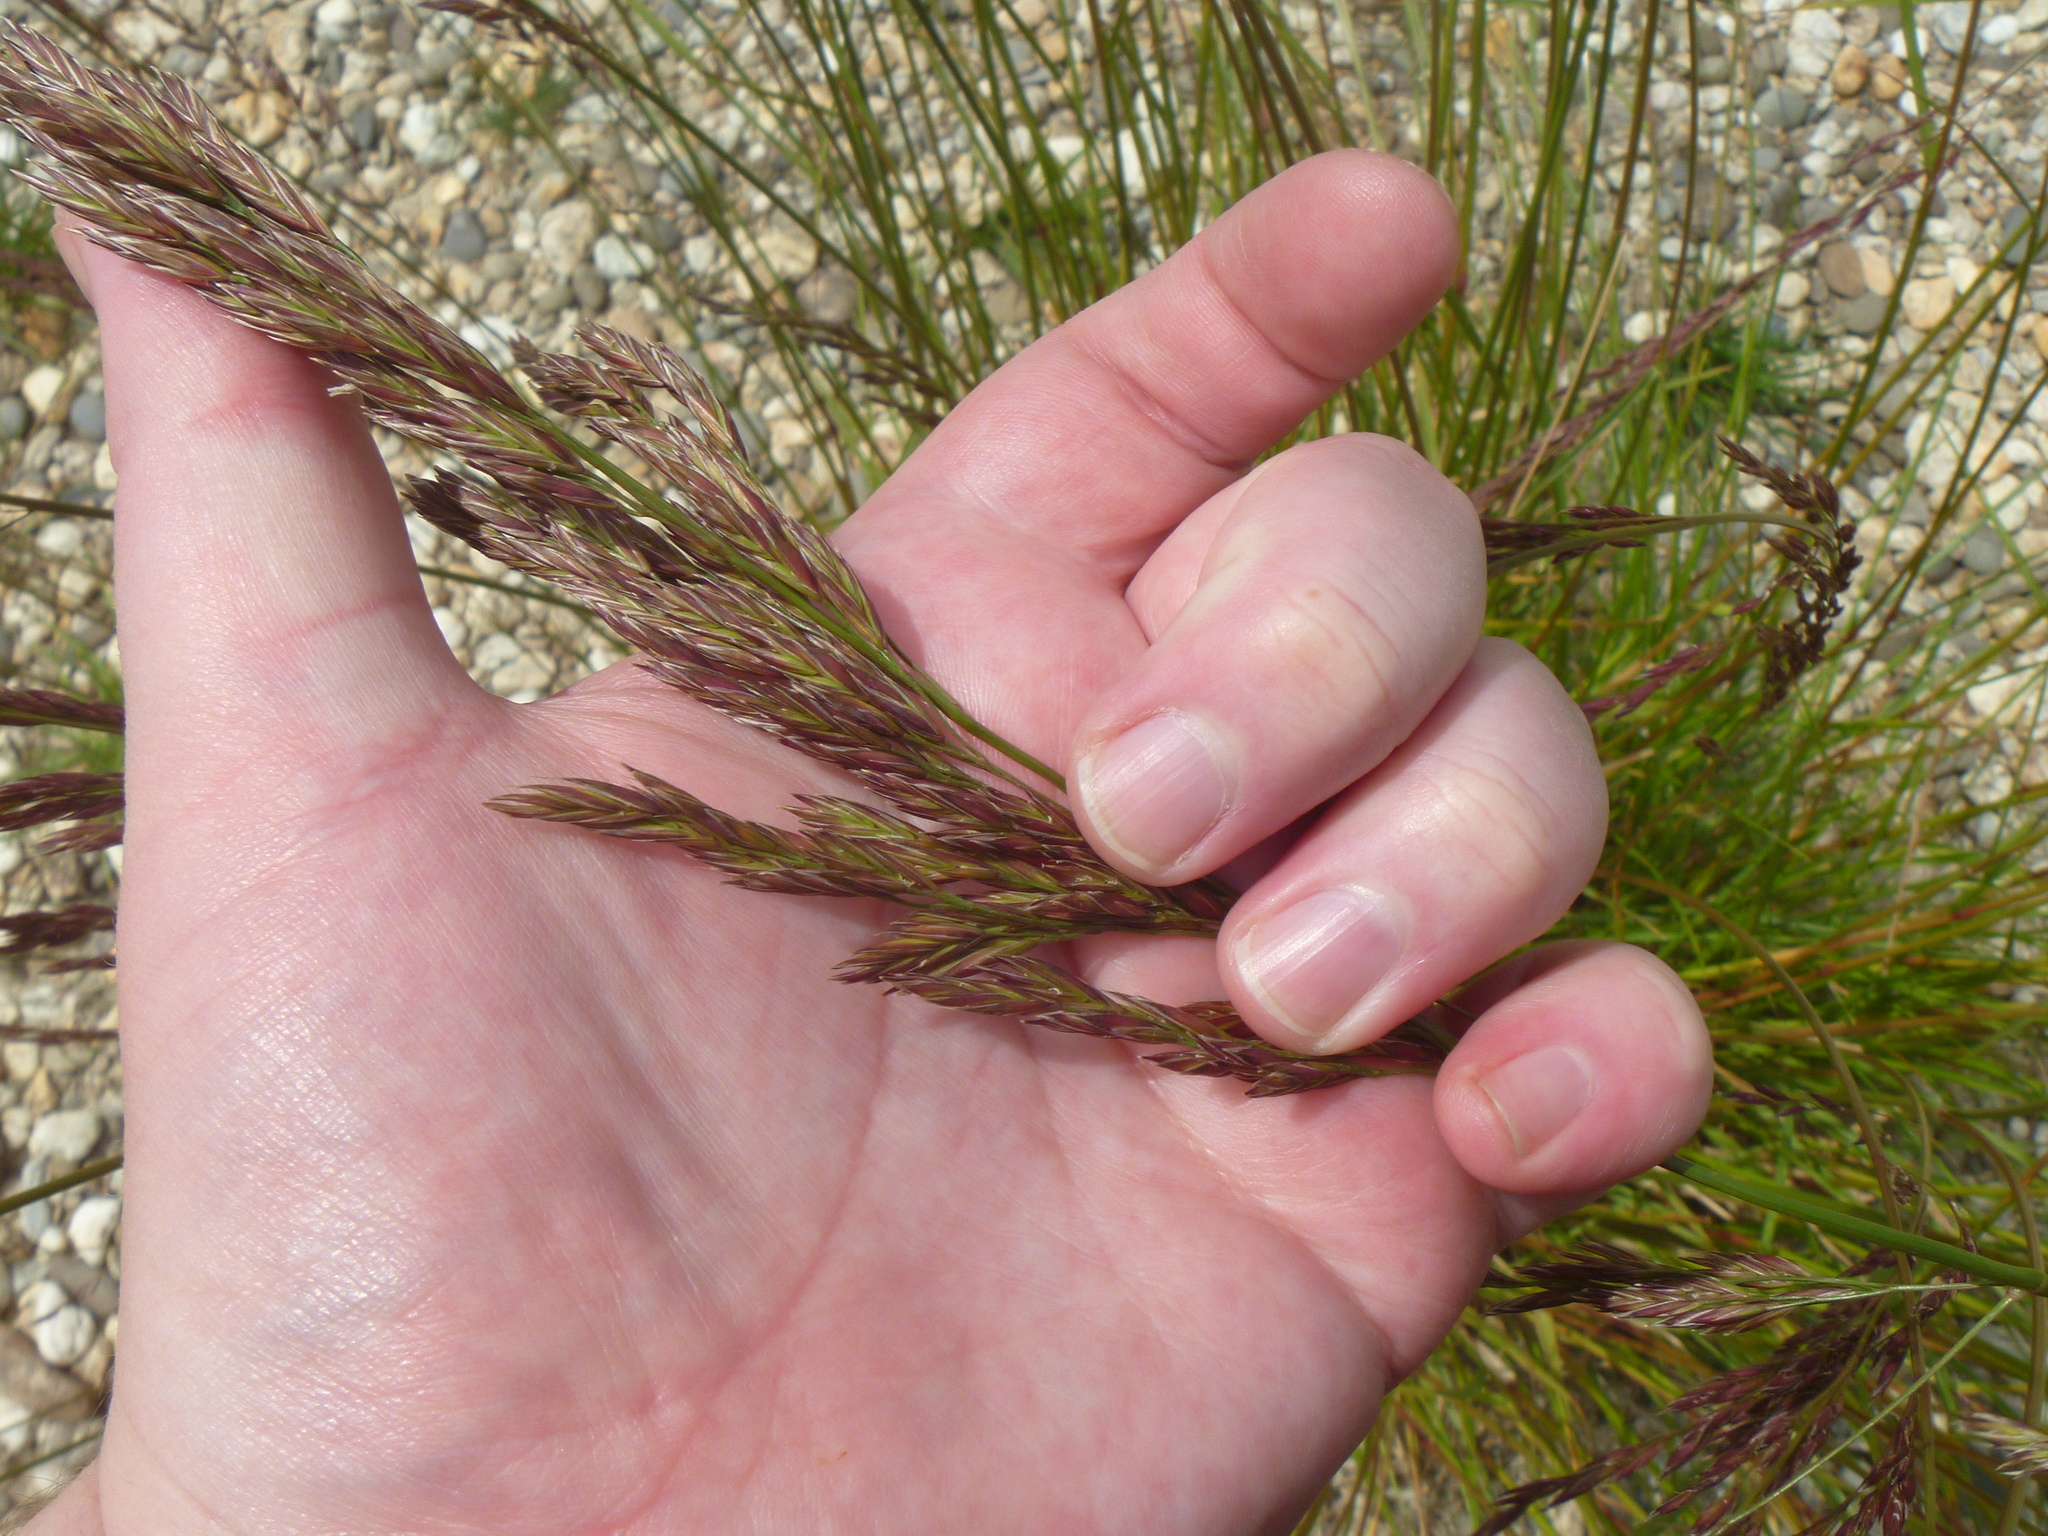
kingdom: Plantae
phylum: Tracheophyta
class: Liliopsida
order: Poales
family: Poaceae
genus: Lolium
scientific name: Lolium arundinaceum
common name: Reed fescue
